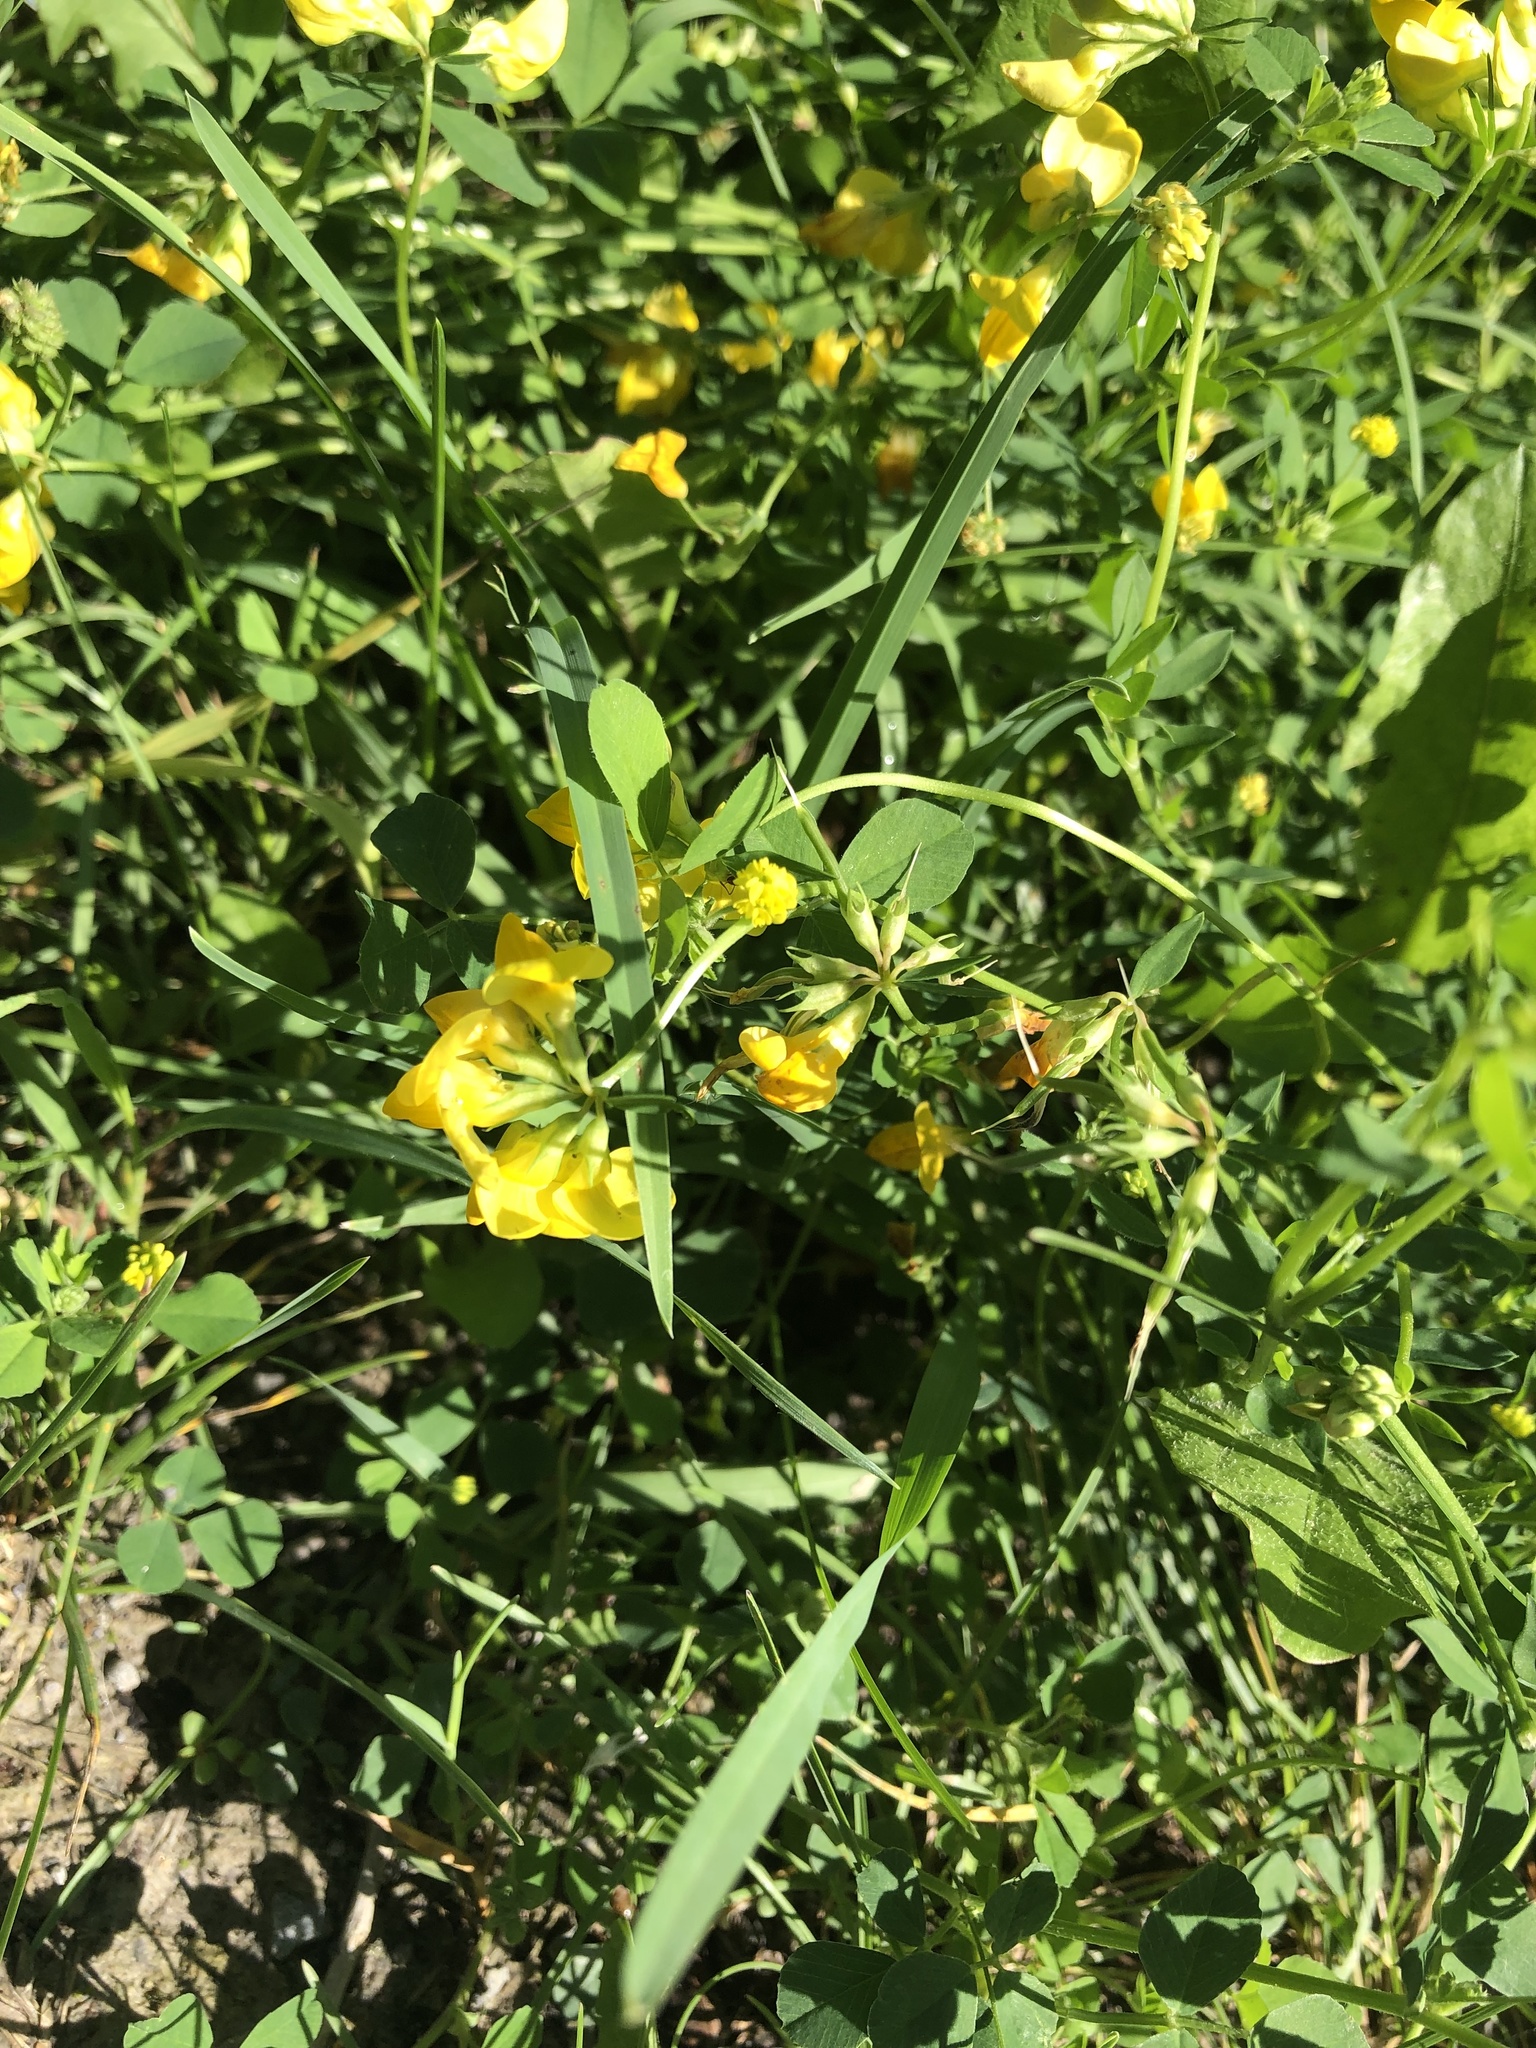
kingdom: Plantae
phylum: Tracheophyta
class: Magnoliopsida
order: Fabales
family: Fabaceae
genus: Lotus
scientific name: Lotus corniculatus
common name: Common bird's-foot-trefoil
